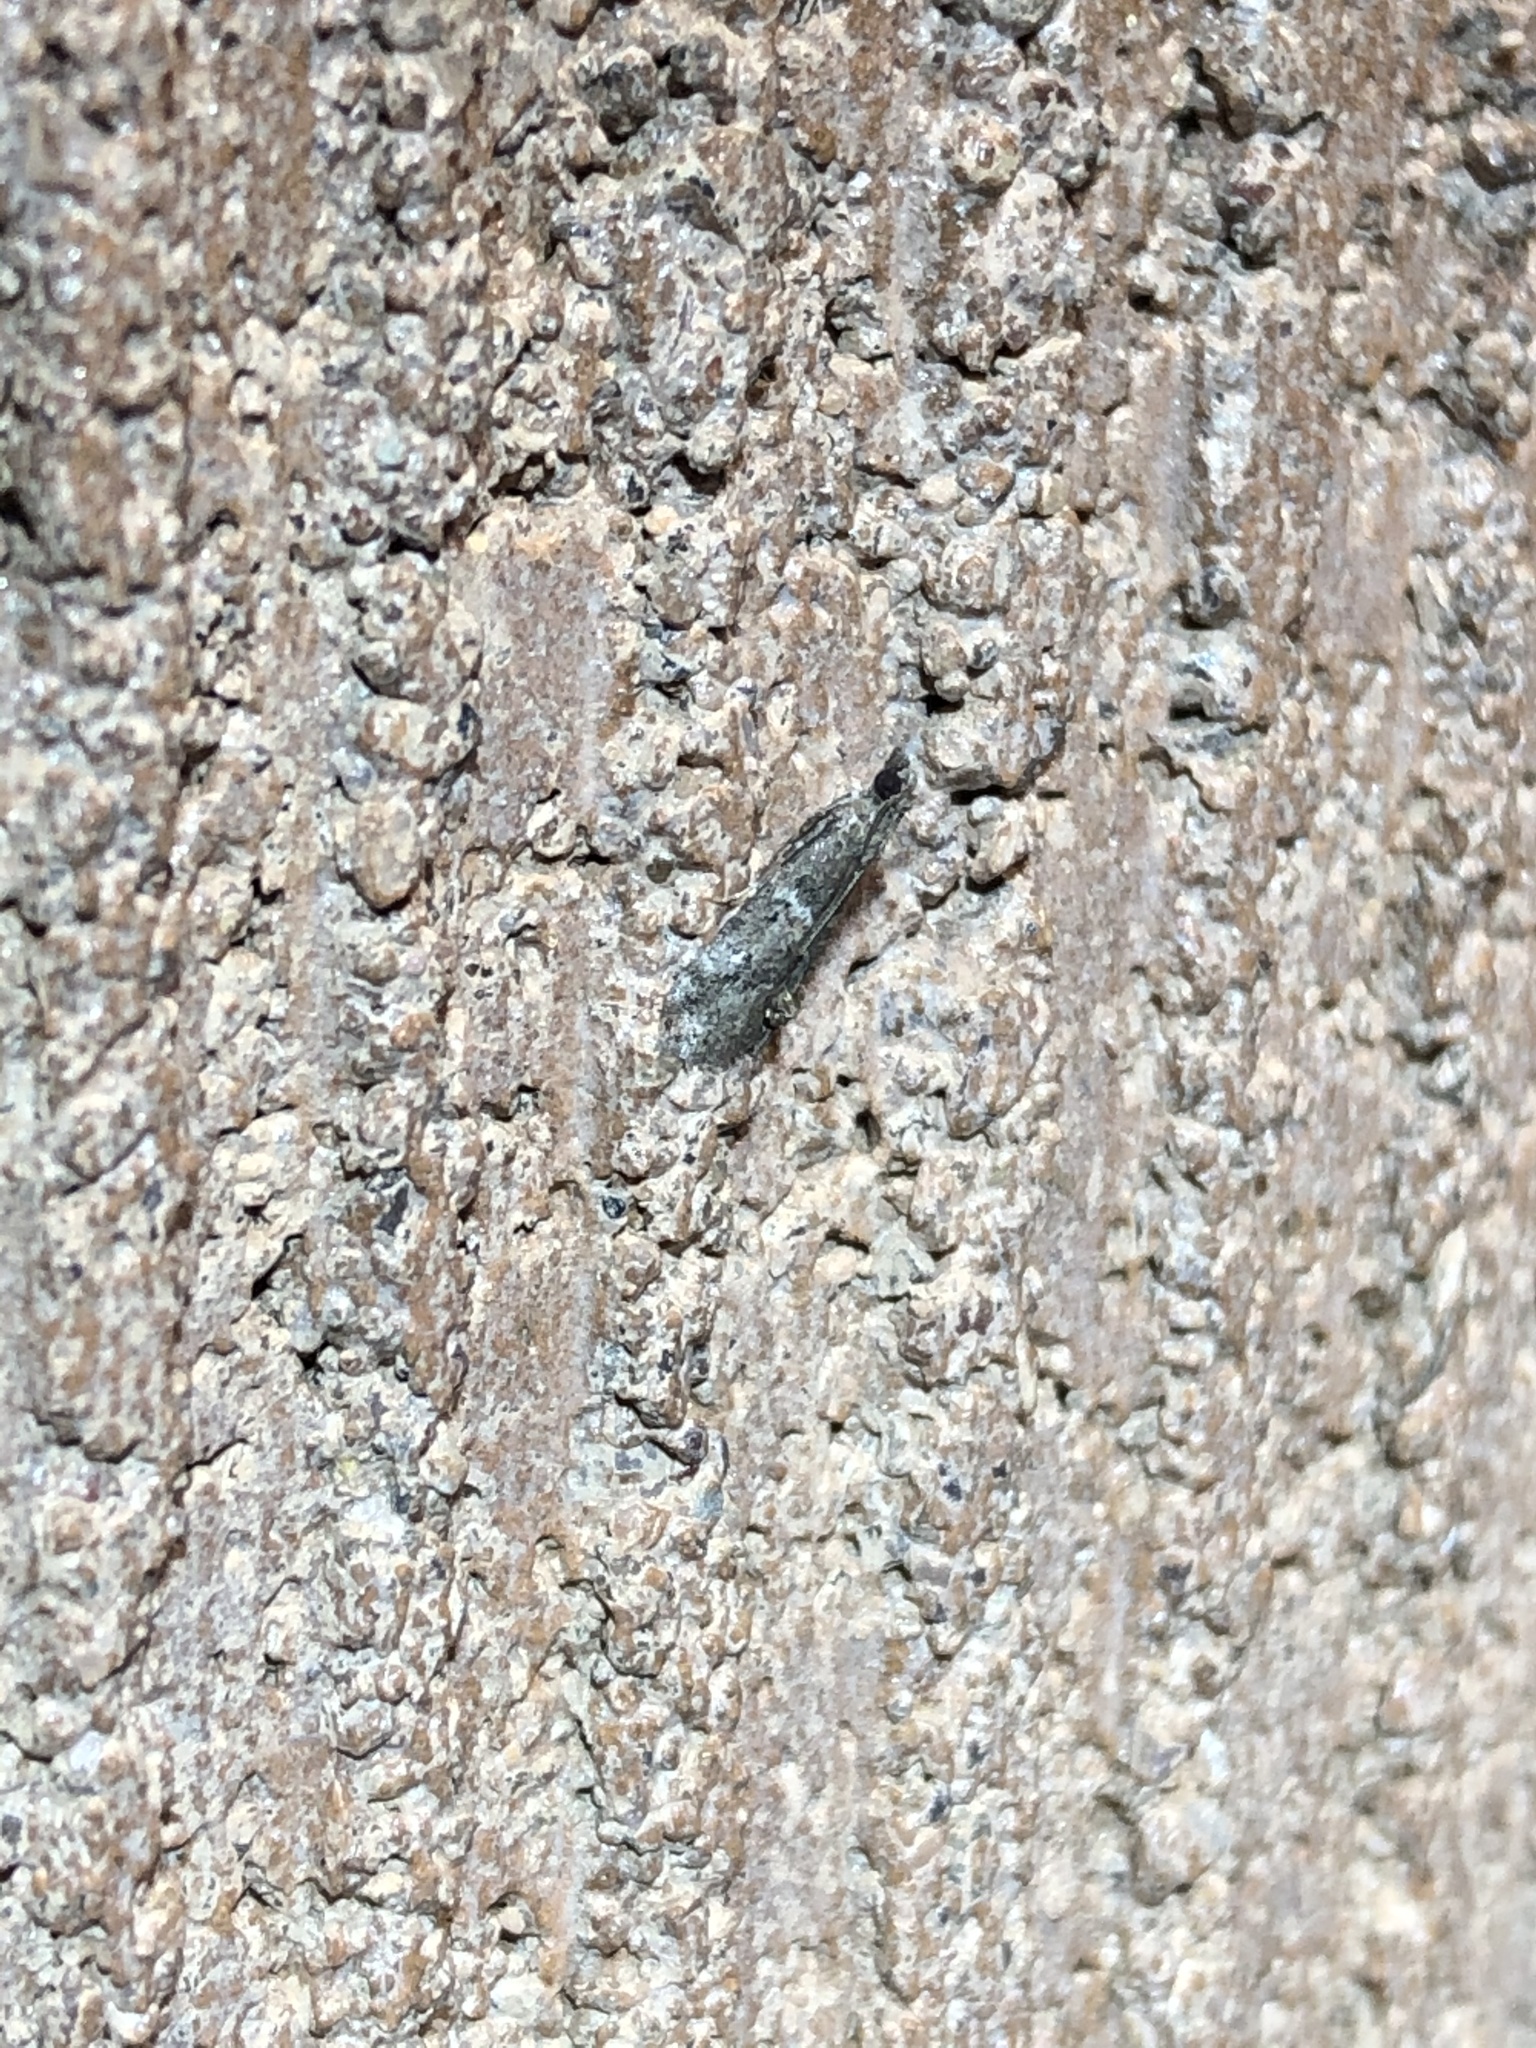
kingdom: Animalia
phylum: Arthropoda
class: Insecta
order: Lepidoptera
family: Pyralidae
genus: Alpheioides
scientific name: Alpheioides parvulalis
